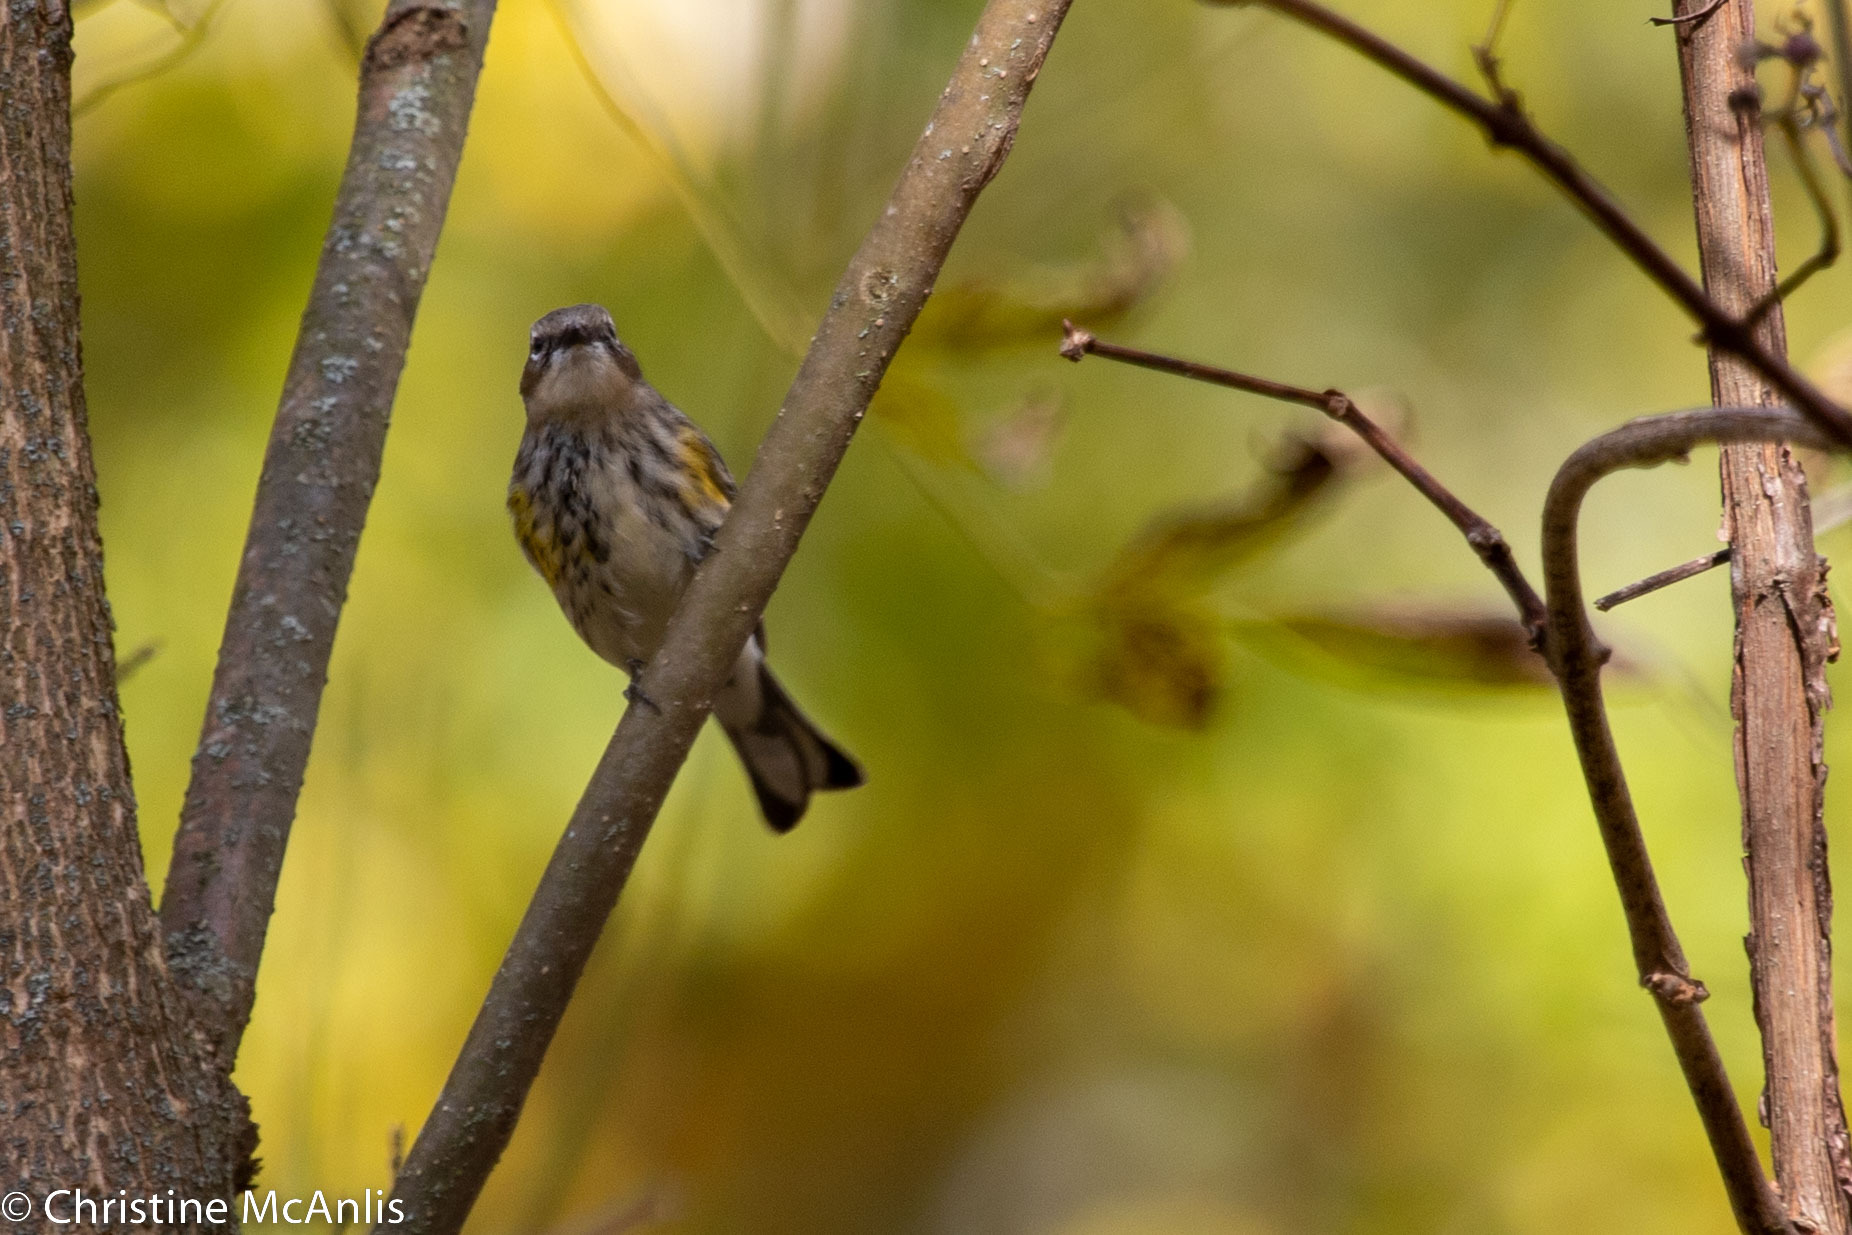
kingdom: Animalia
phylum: Chordata
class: Aves
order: Passeriformes
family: Parulidae
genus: Setophaga
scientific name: Setophaga coronata
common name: Myrtle warbler
